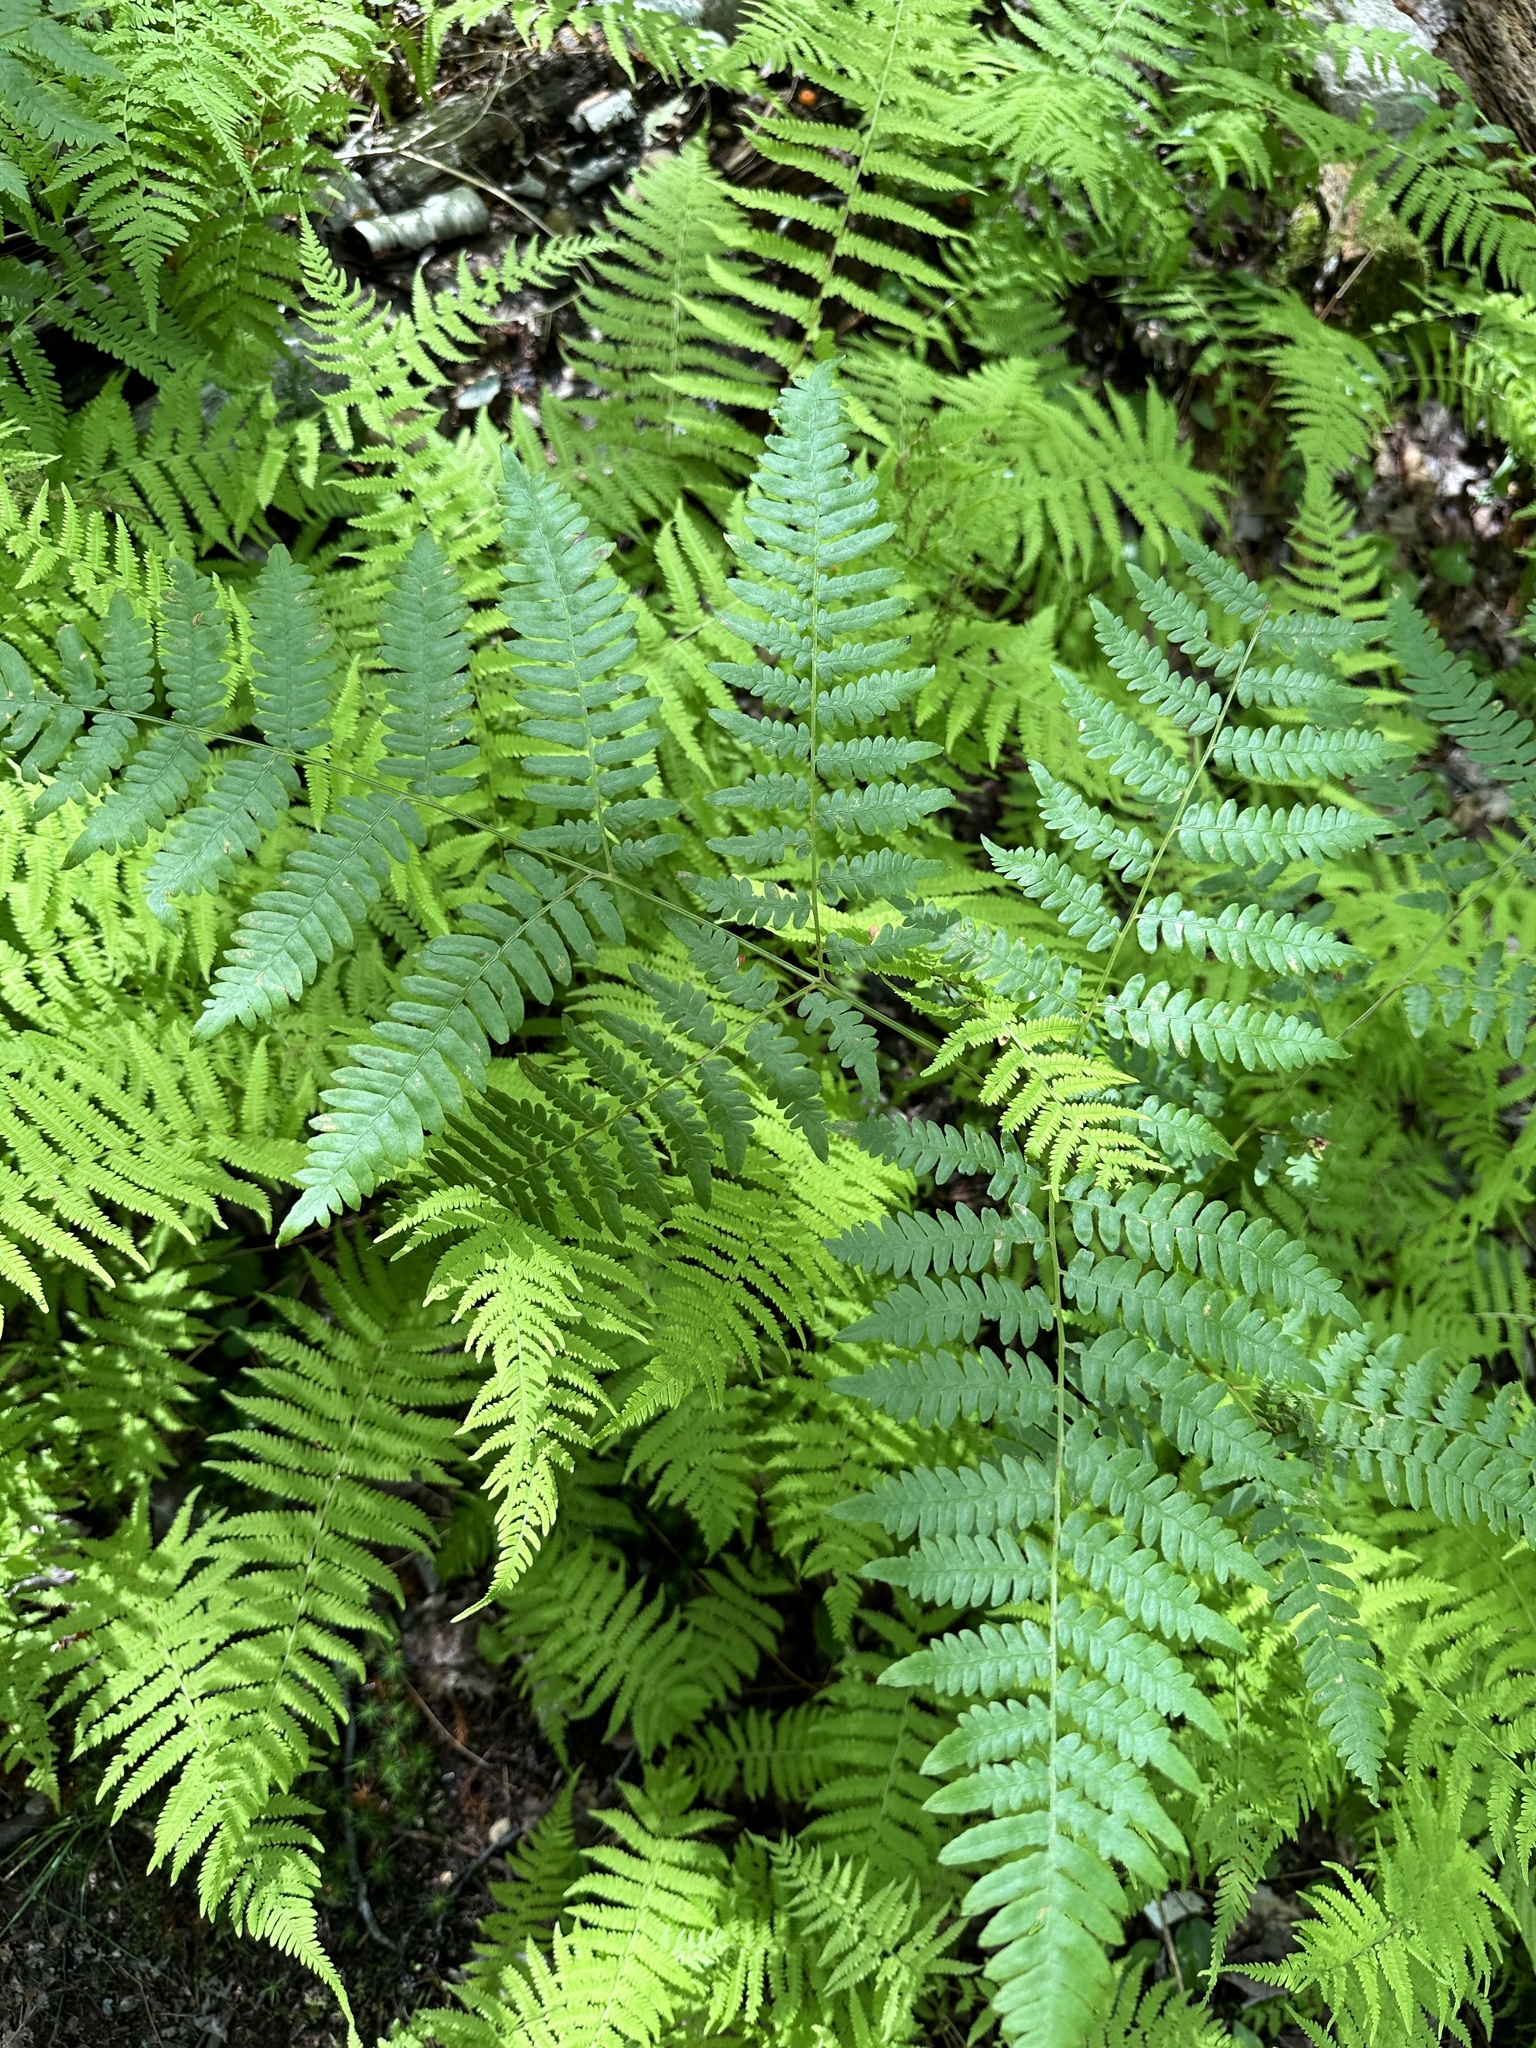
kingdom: Plantae
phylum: Tracheophyta
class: Polypodiopsida
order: Polypodiales
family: Dennstaedtiaceae
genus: Pteridium
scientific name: Pteridium aquilinum
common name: Bracken
